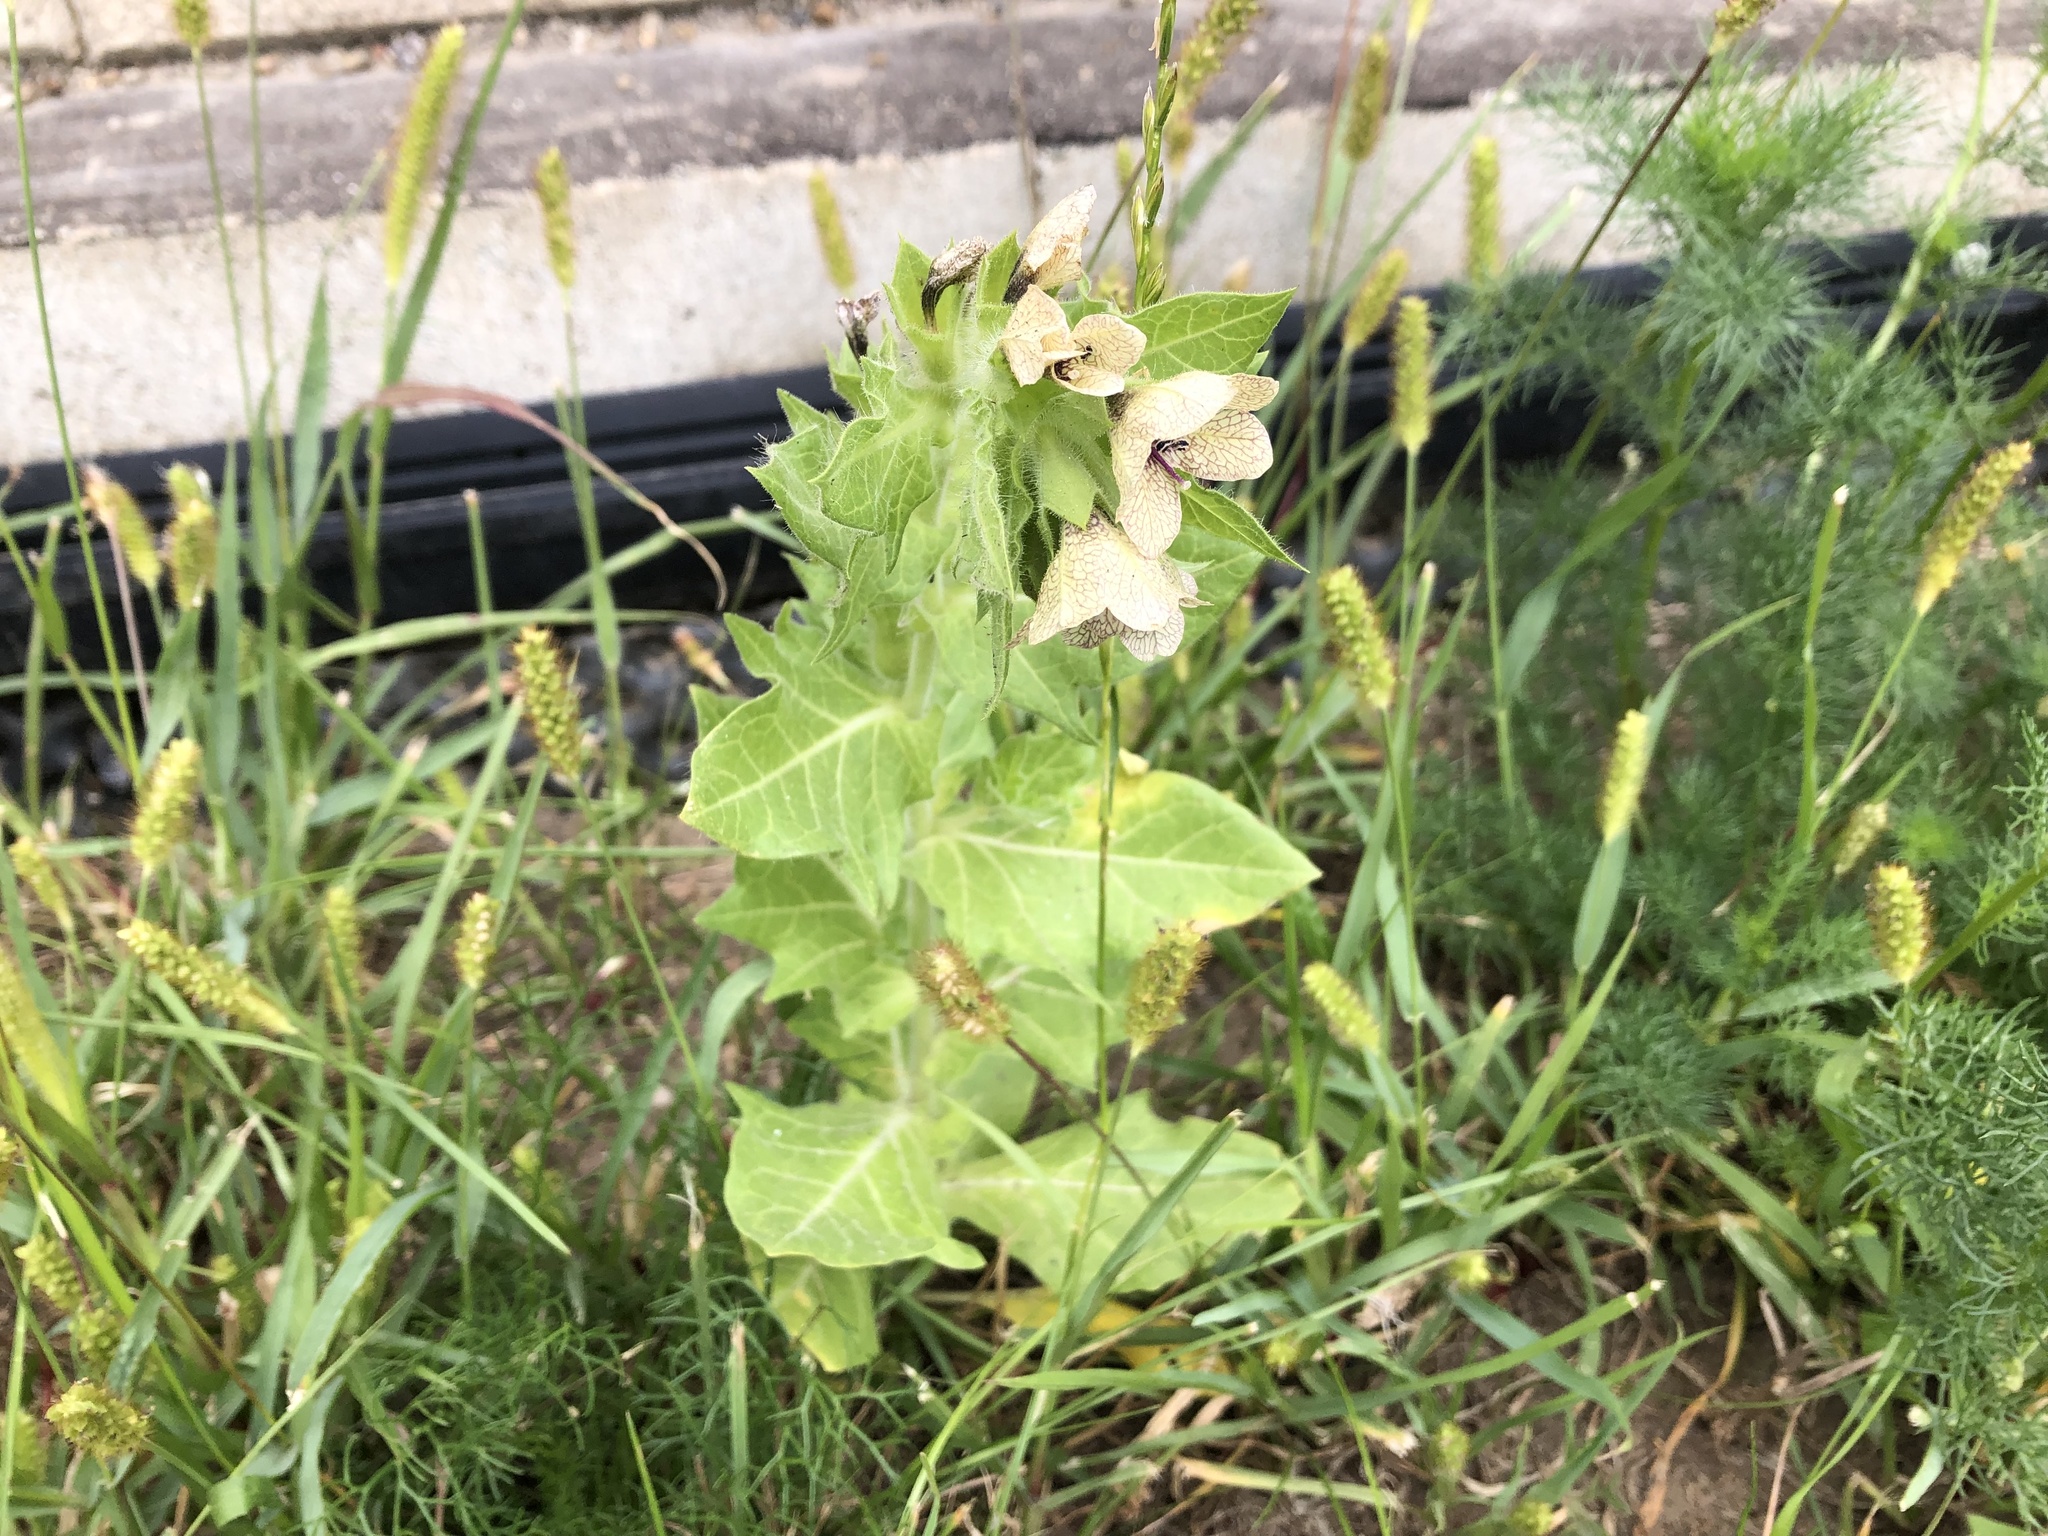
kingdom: Plantae
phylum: Tracheophyta
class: Magnoliopsida
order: Solanales
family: Solanaceae
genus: Hyoscyamus
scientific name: Hyoscyamus niger
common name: Henbane
